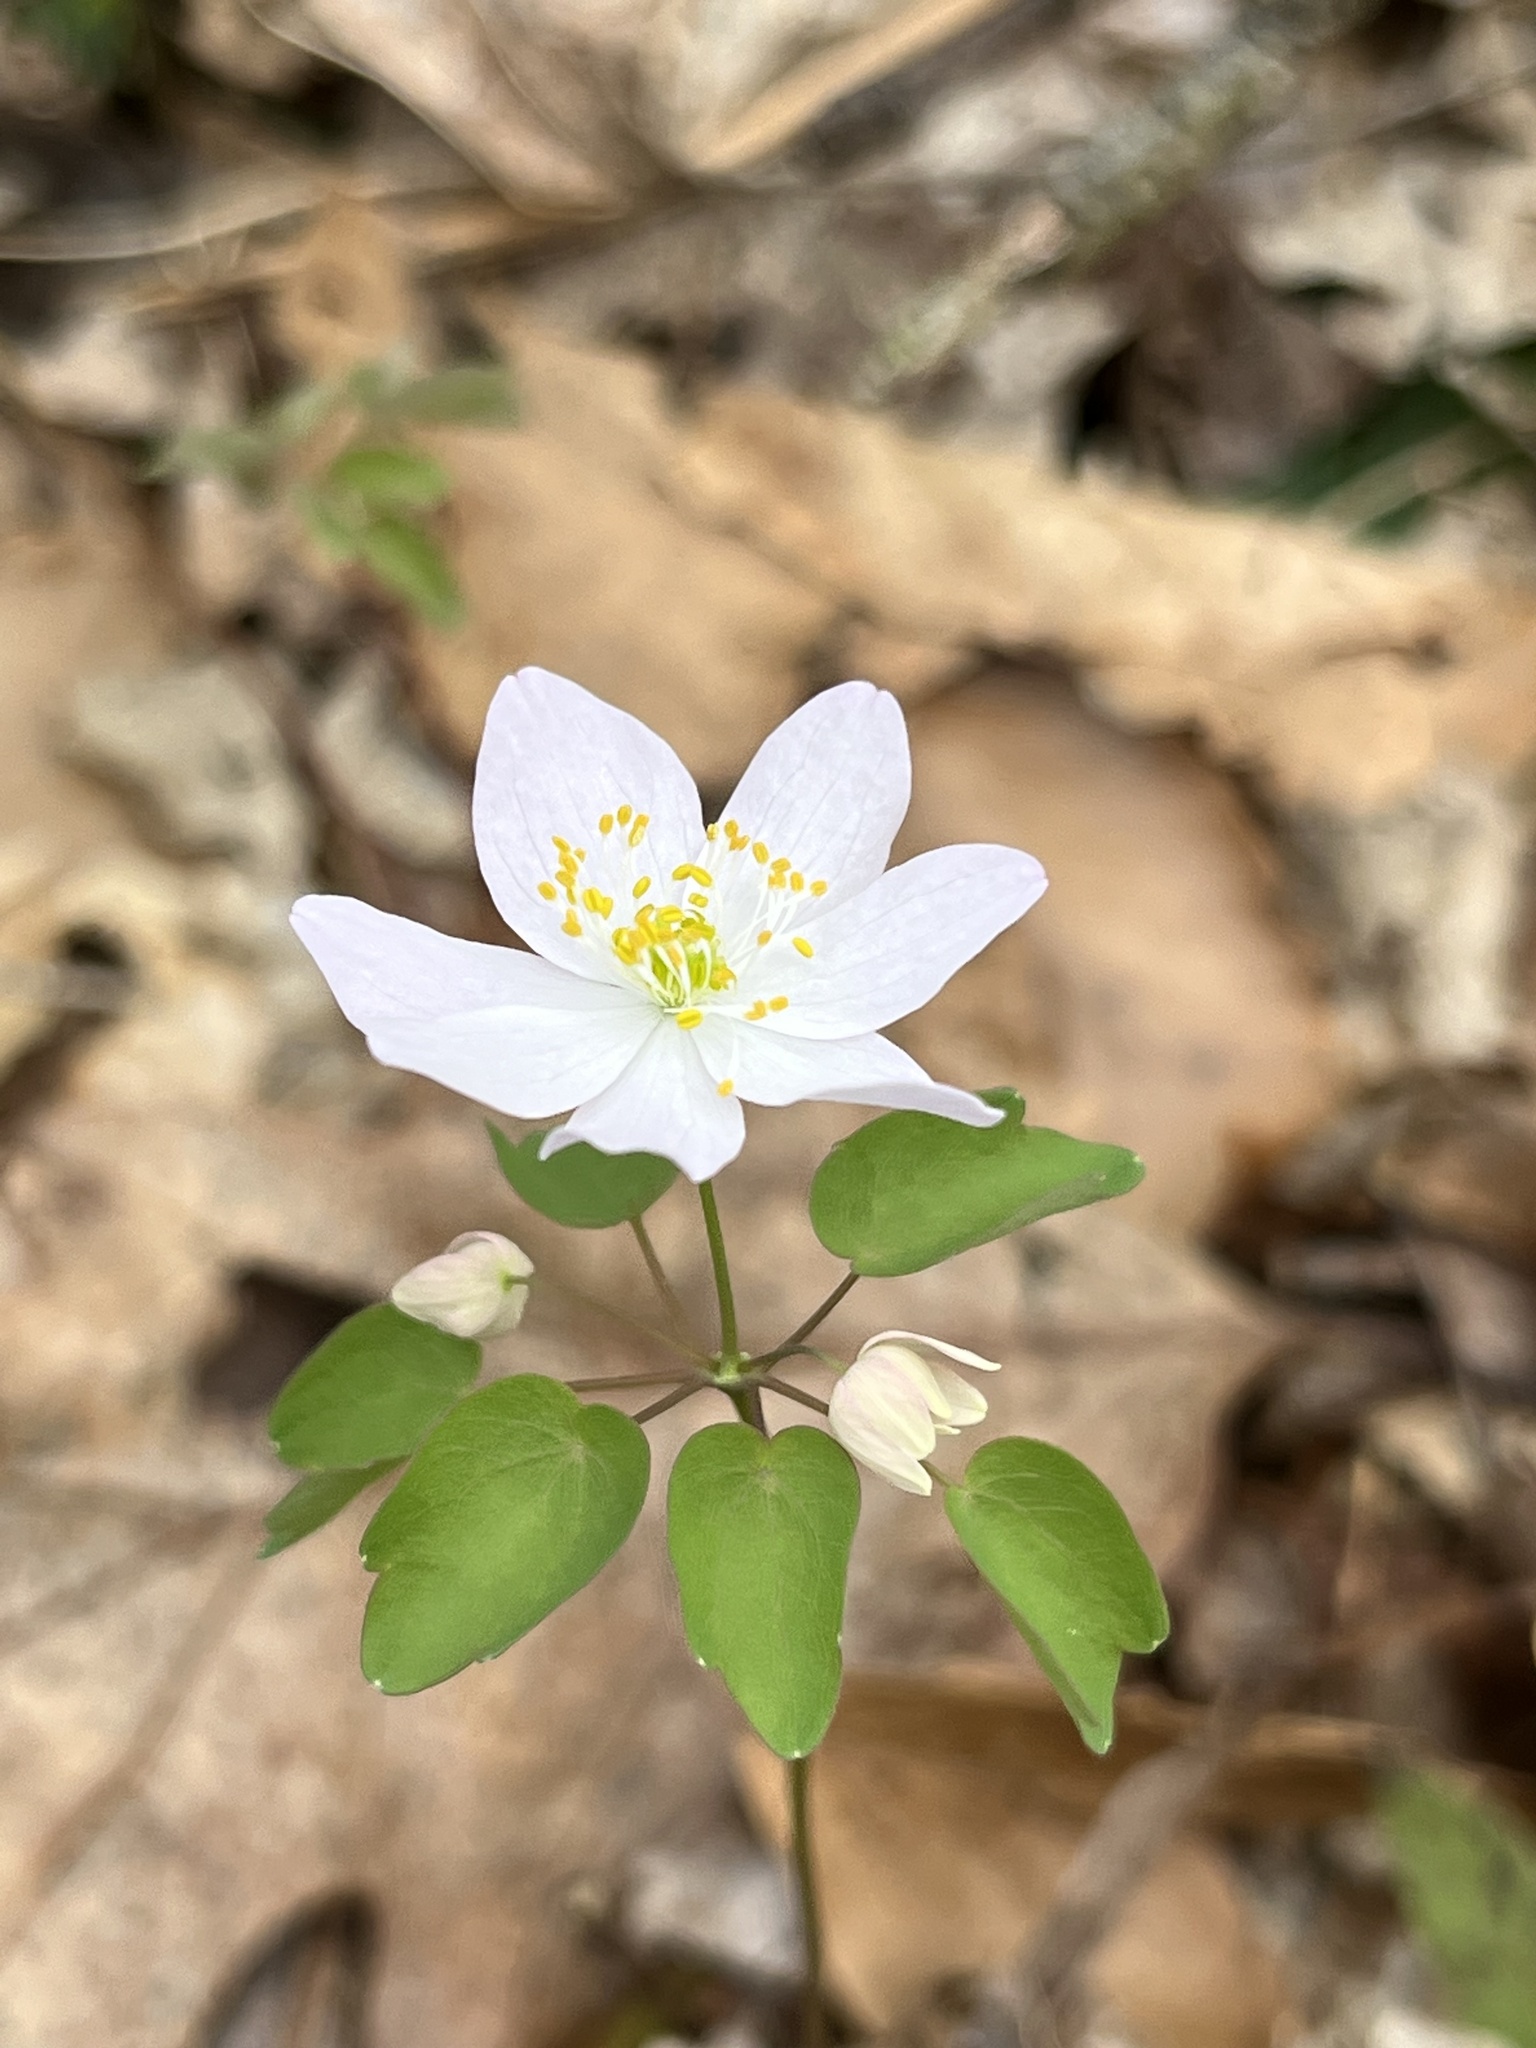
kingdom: Plantae
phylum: Tracheophyta
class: Magnoliopsida
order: Ranunculales
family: Ranunculaceae
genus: Thalictrum
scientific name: Thalictrum thalictroides
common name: Rue-anemone
